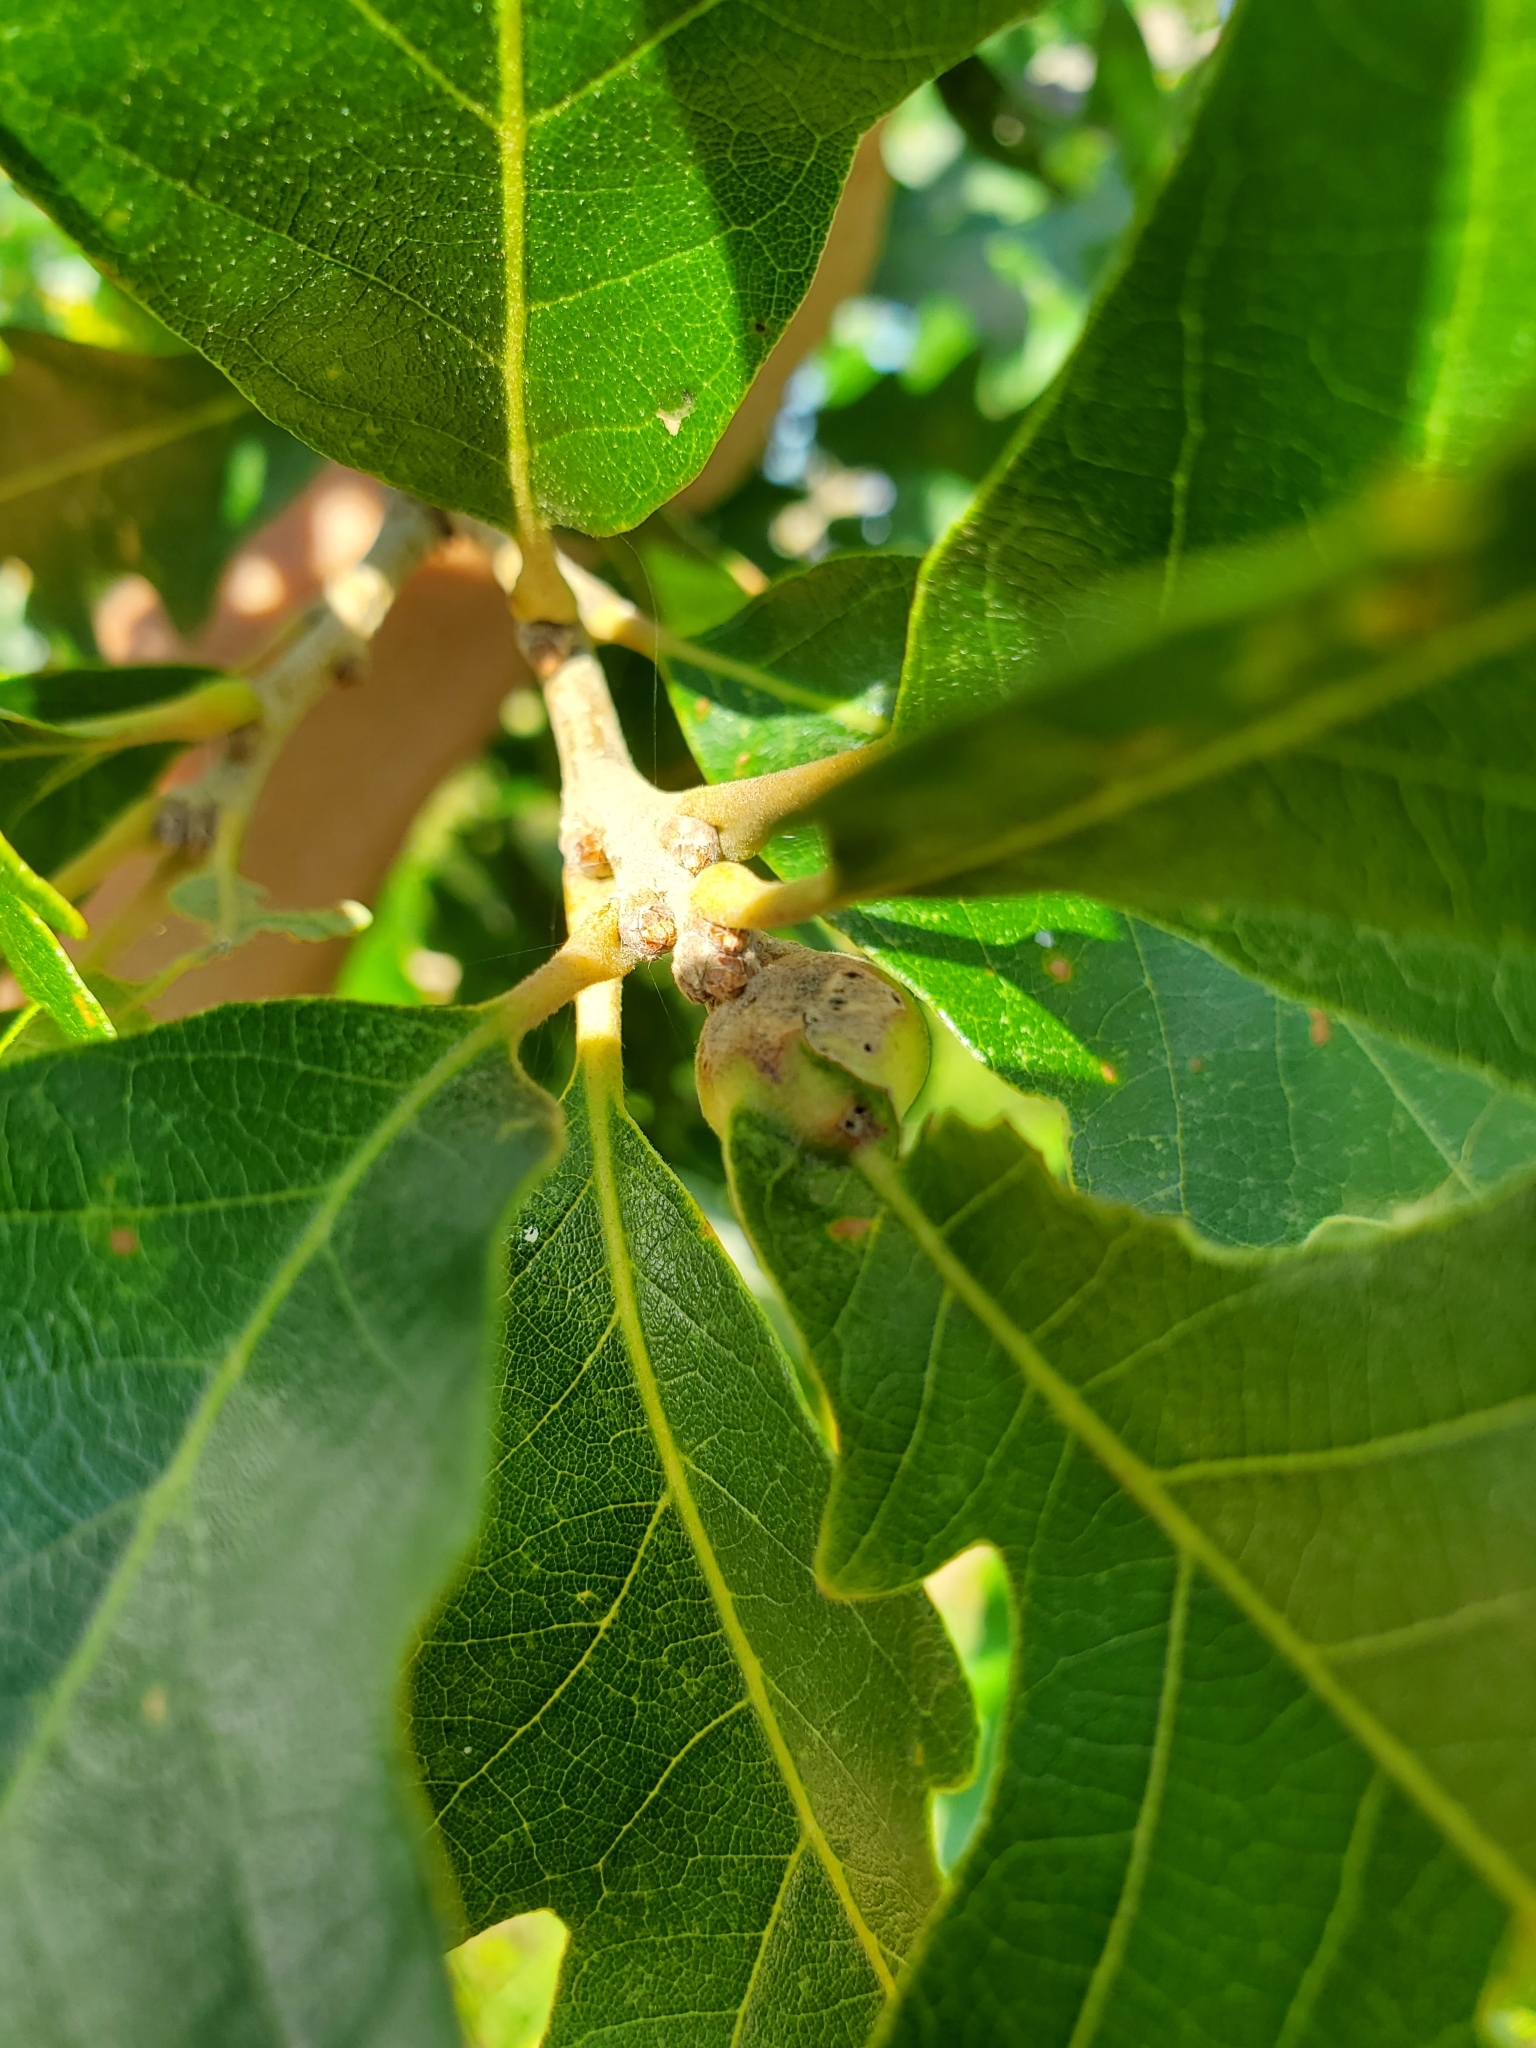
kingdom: Animalia
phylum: Arthropoda
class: Insecta
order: Hymenoptera
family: Cynipidae
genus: Andricus
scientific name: Andricus
